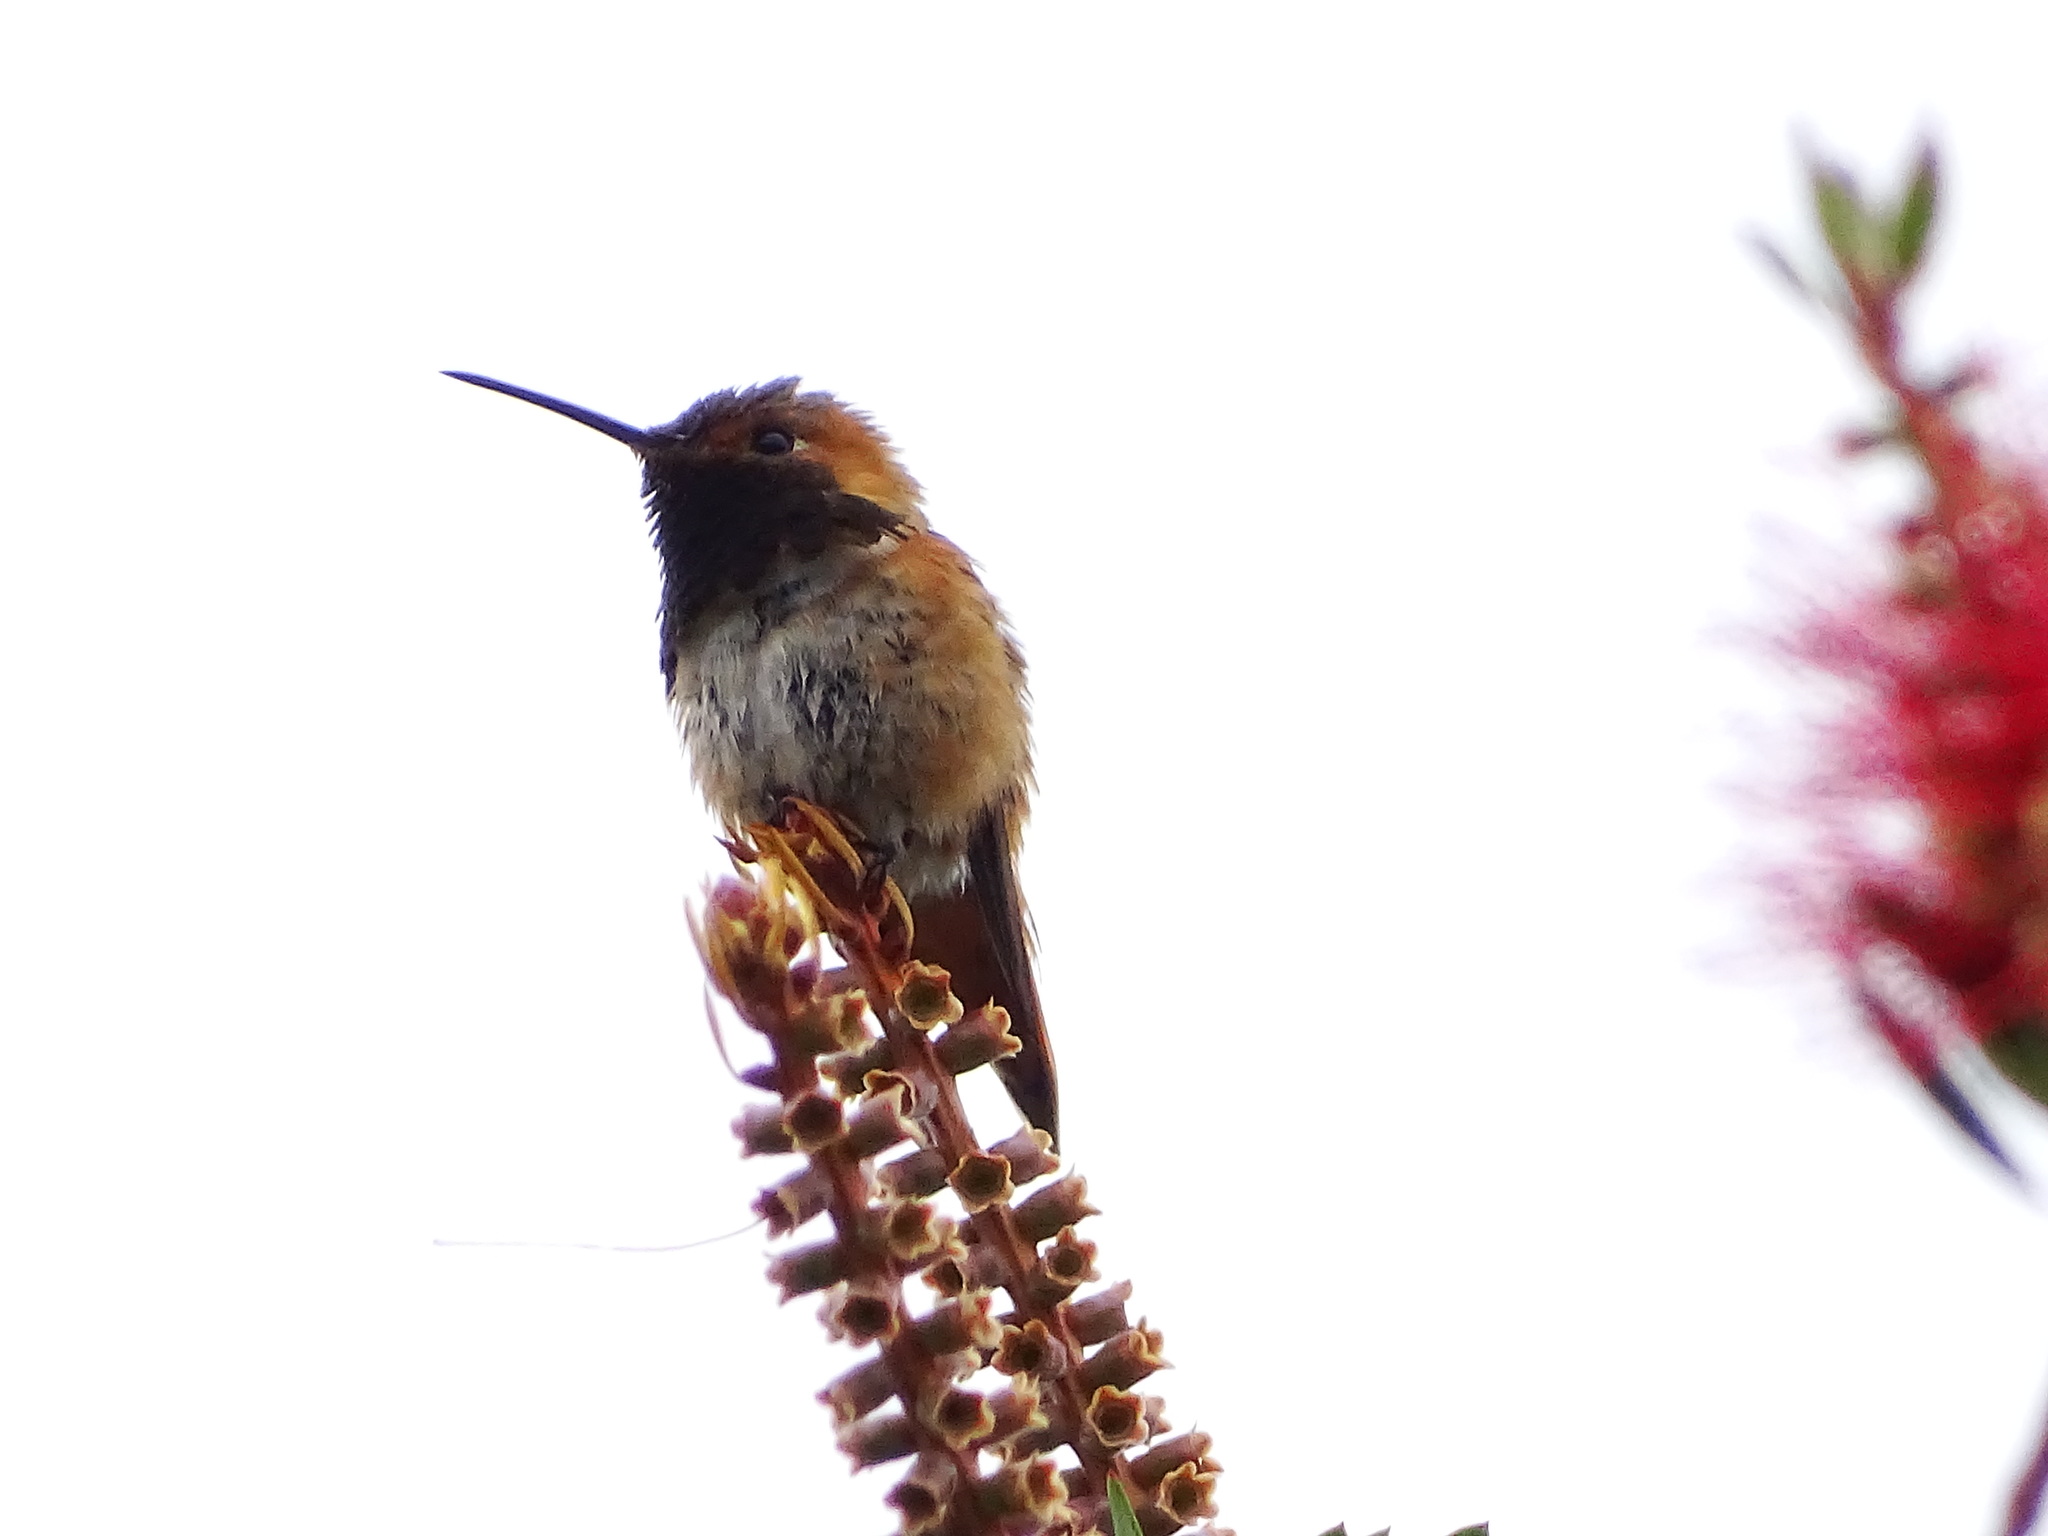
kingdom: Animalia
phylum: Chordata
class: Aves
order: Apodiformes
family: Trochilidae
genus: Selasphorus
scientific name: Selasphorus sasin
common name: Allen's hummingbird
